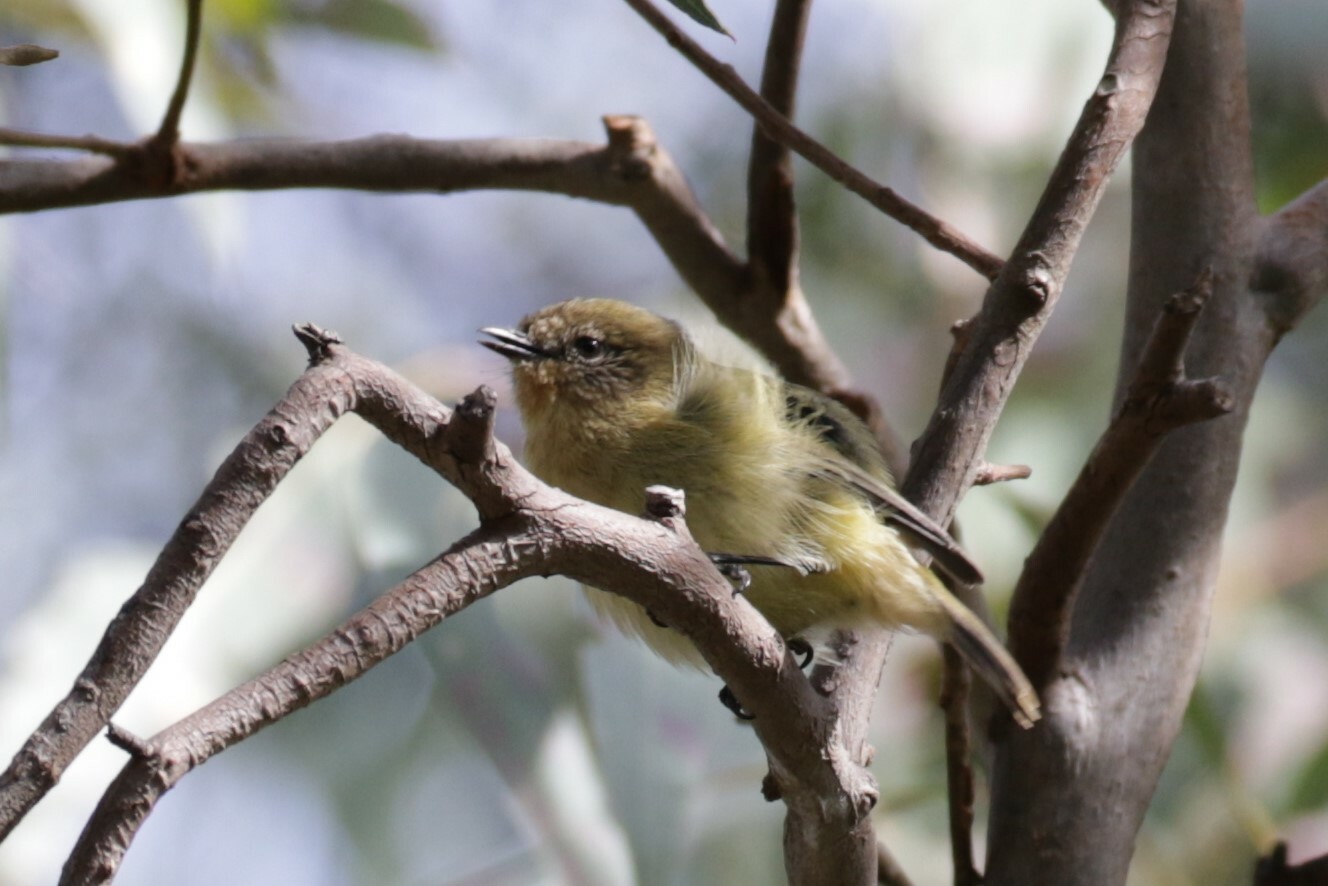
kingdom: Animalia
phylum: Chordata
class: Aves
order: Passeriformes
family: Acanthizidae
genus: Acanthiza
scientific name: Acanthiza nana
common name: Yellow thornbill
